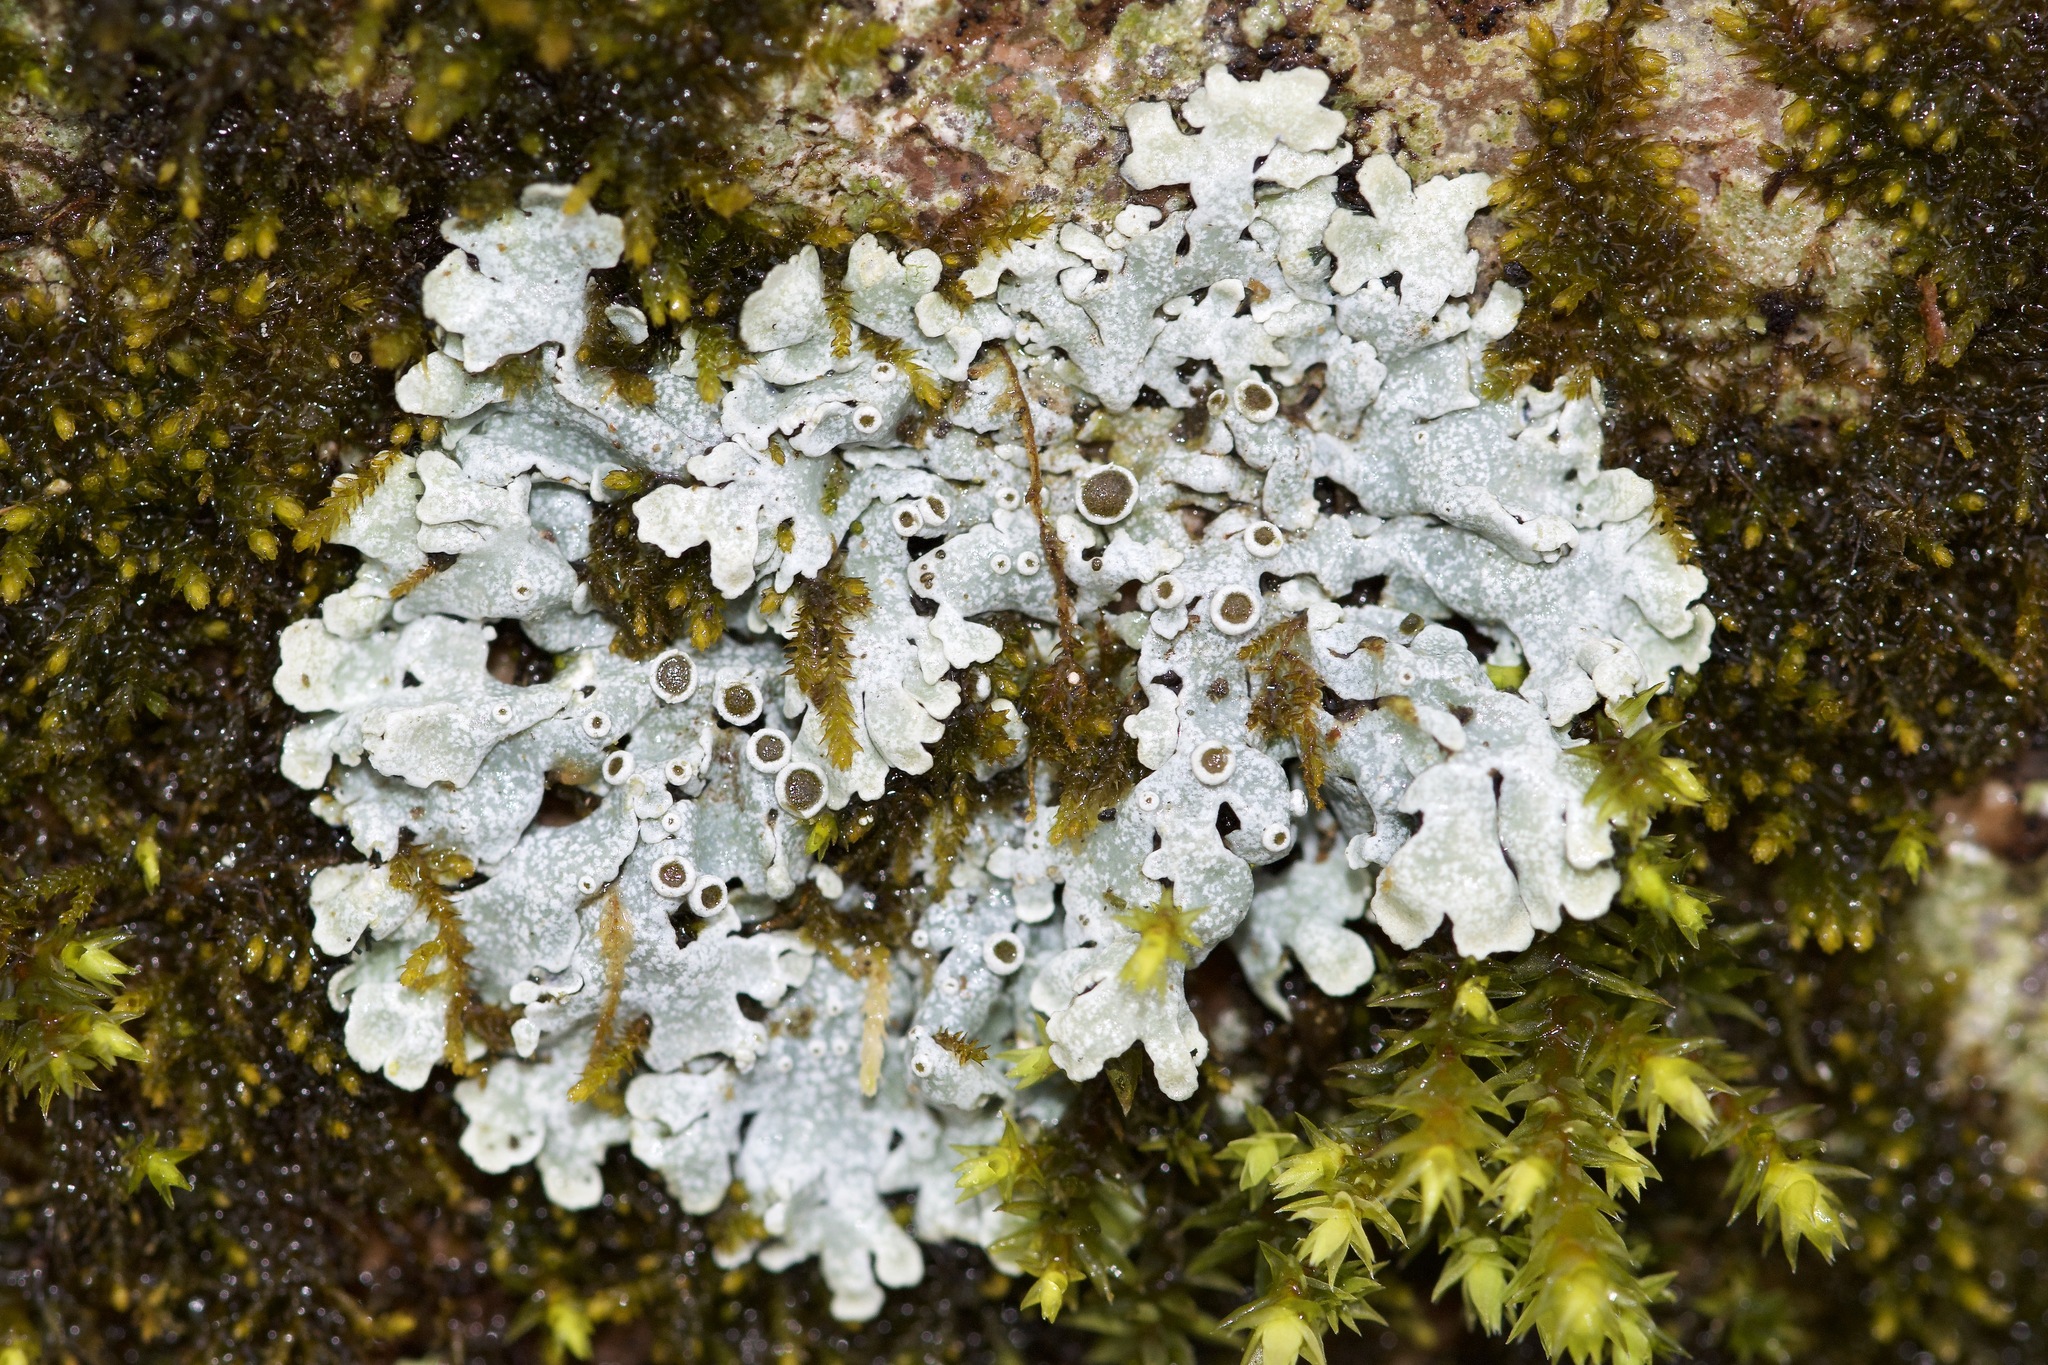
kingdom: Fungi
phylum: Ascomycota
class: Lecanoromycetes
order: Caliciales
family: Physciaceae
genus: Physcia
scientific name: Physcia stellaris
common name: Star rosette lichen
